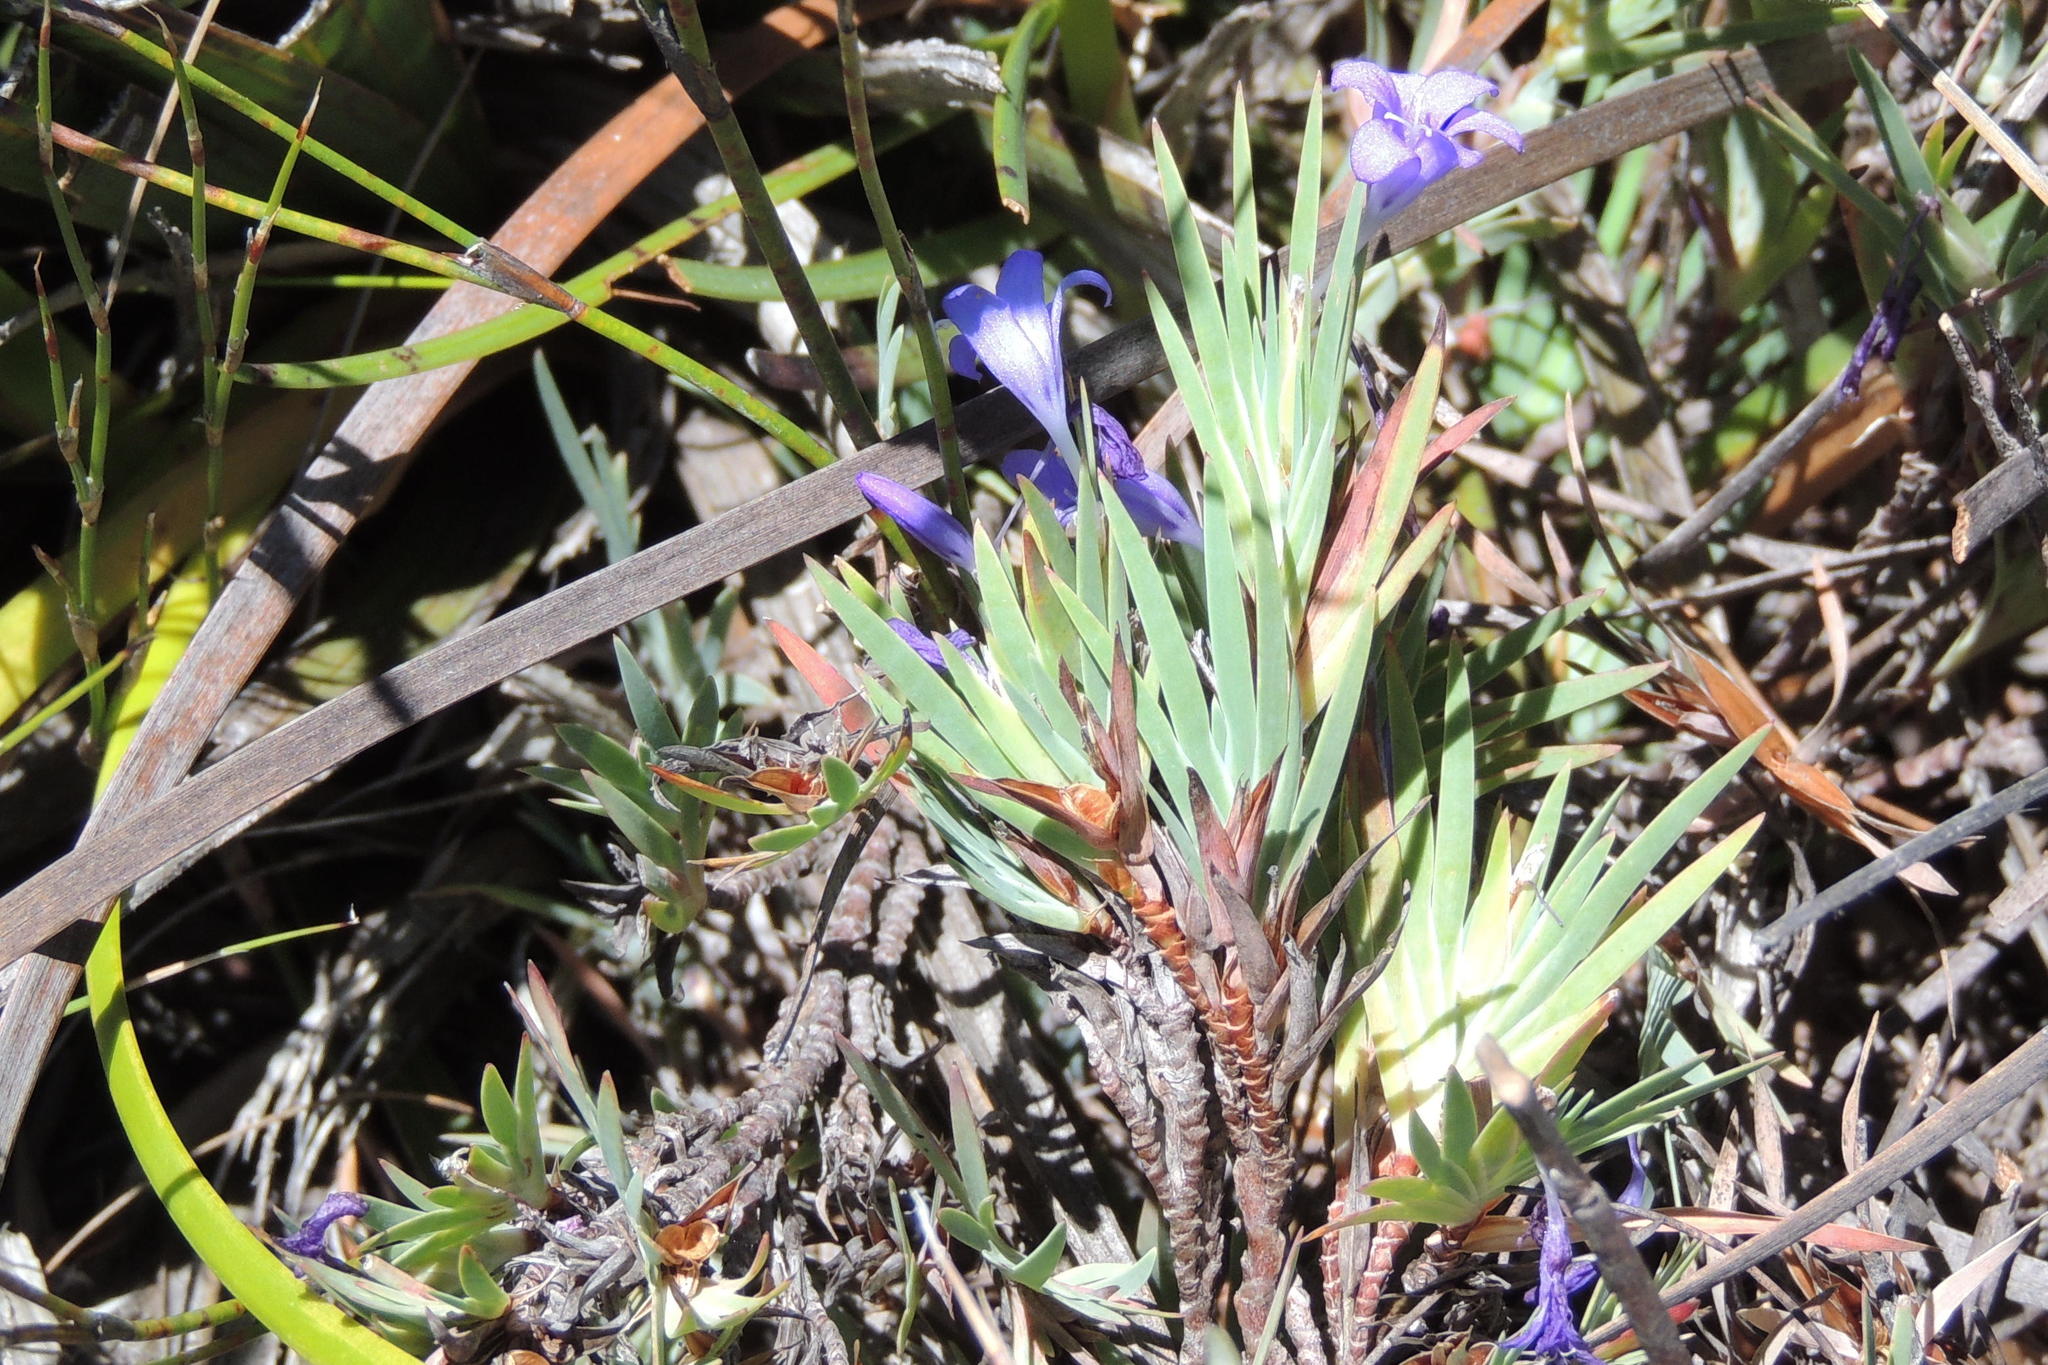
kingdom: Plantae
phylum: Tracheophyta
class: Liliopsida
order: Asparagales
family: Iridaceae
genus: Nivenia
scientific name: Nivenia fruticosa
